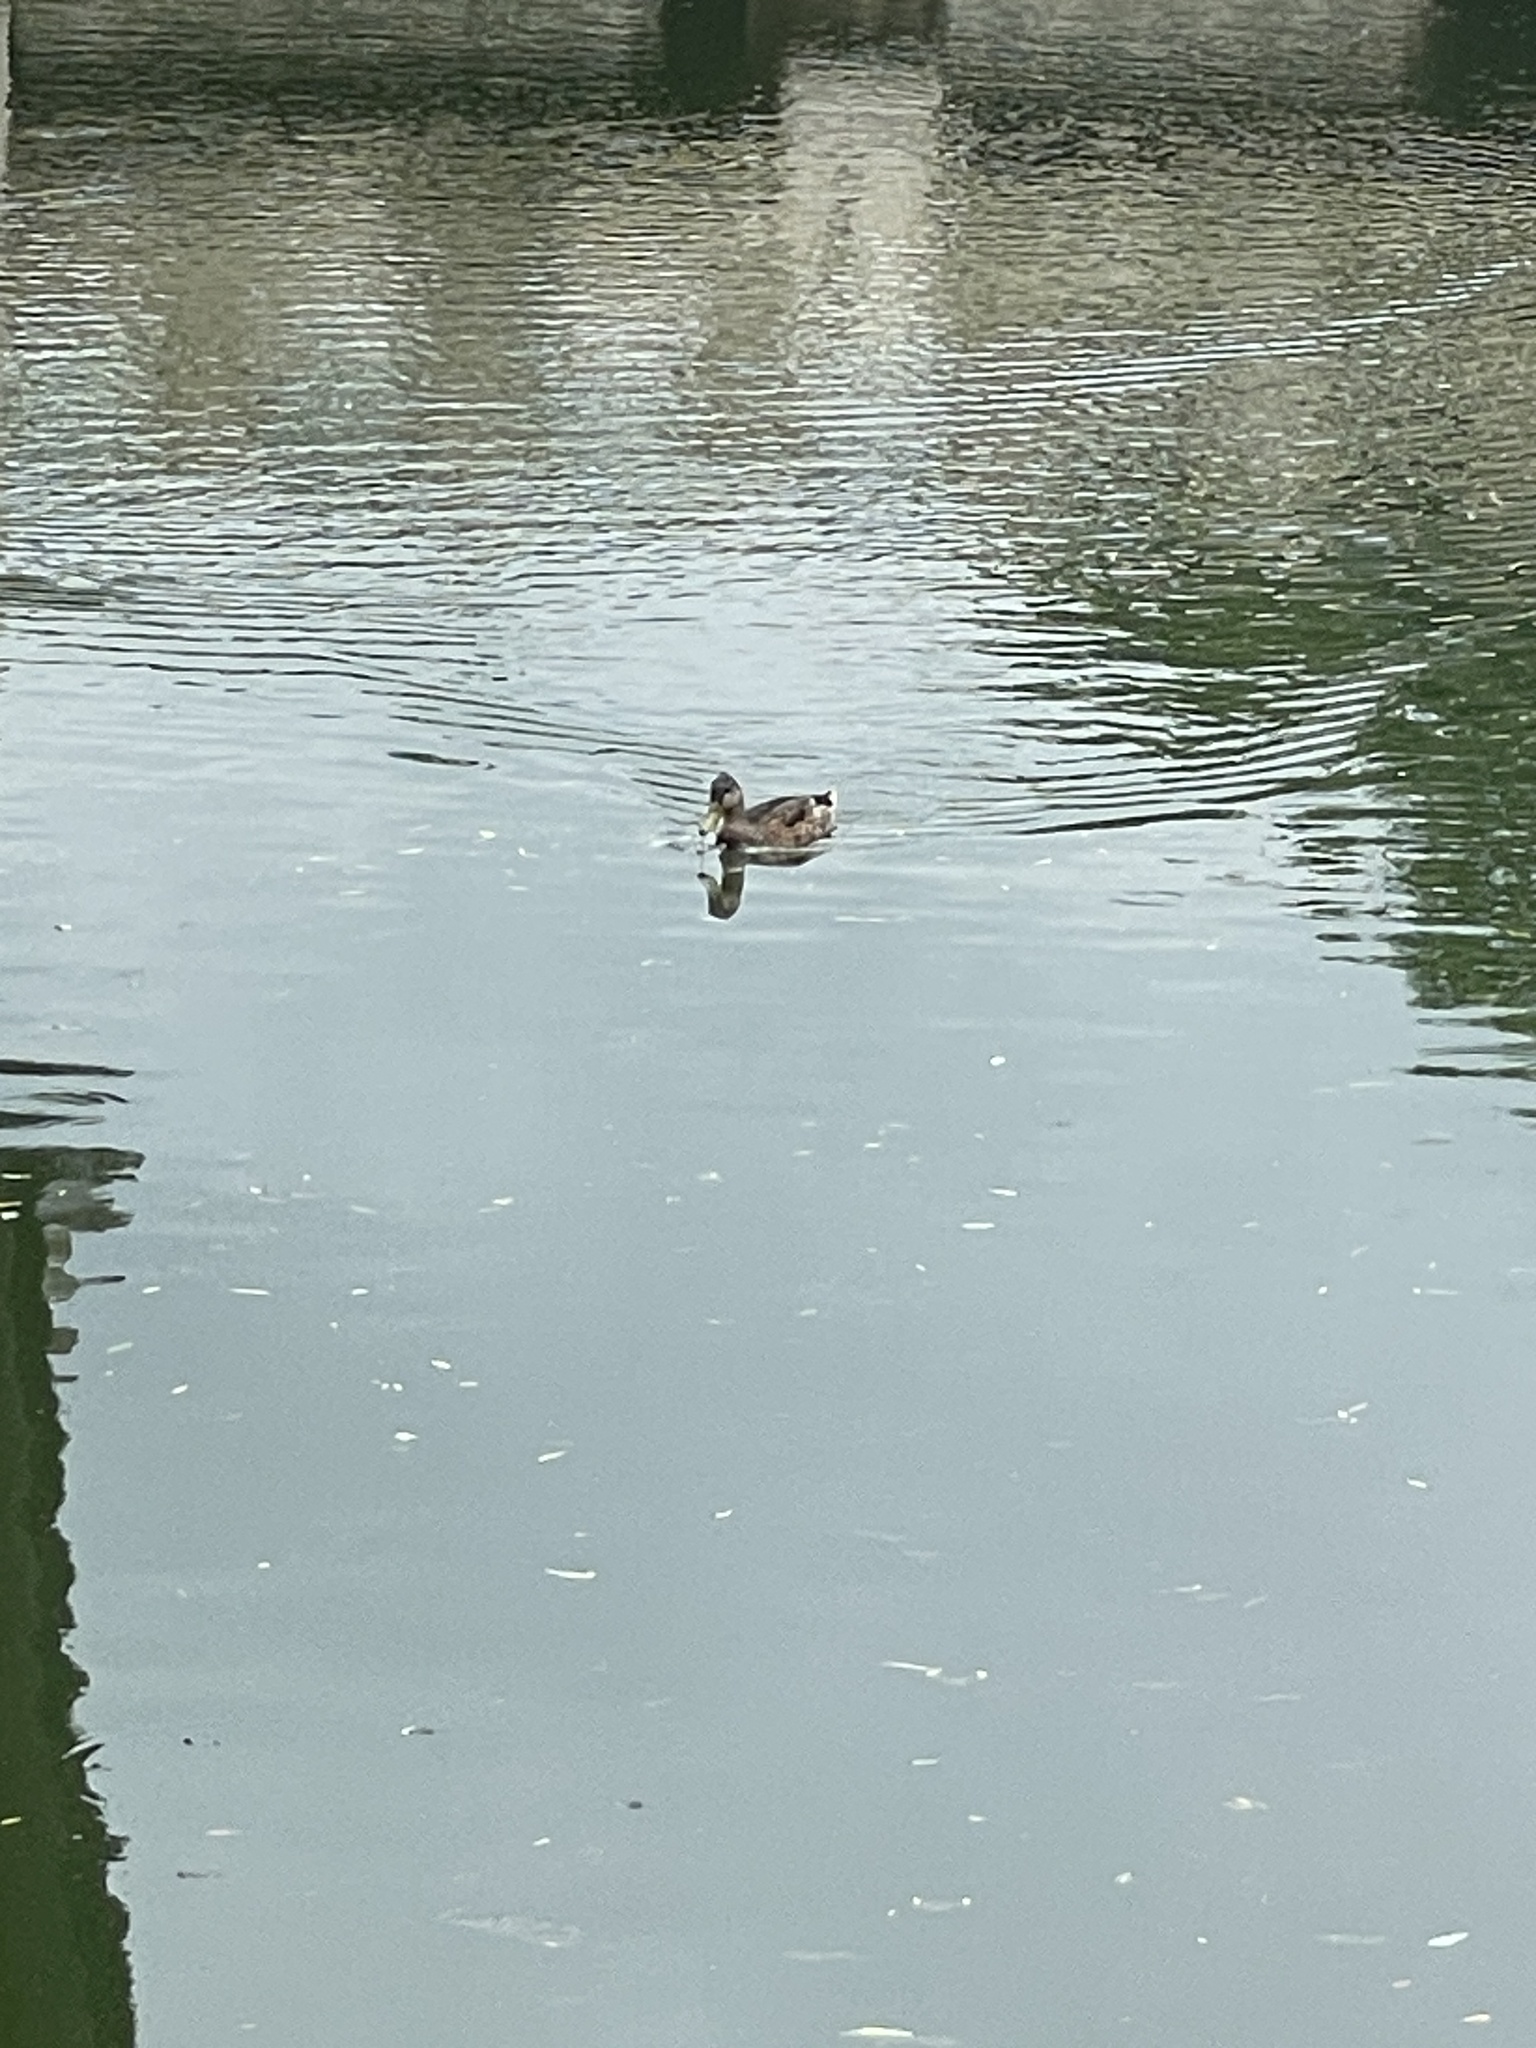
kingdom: Animalia
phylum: Chordata
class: Aves
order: Anseriformes
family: Anatidae
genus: Anas
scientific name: Anas platyrhynchos
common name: Mallard
